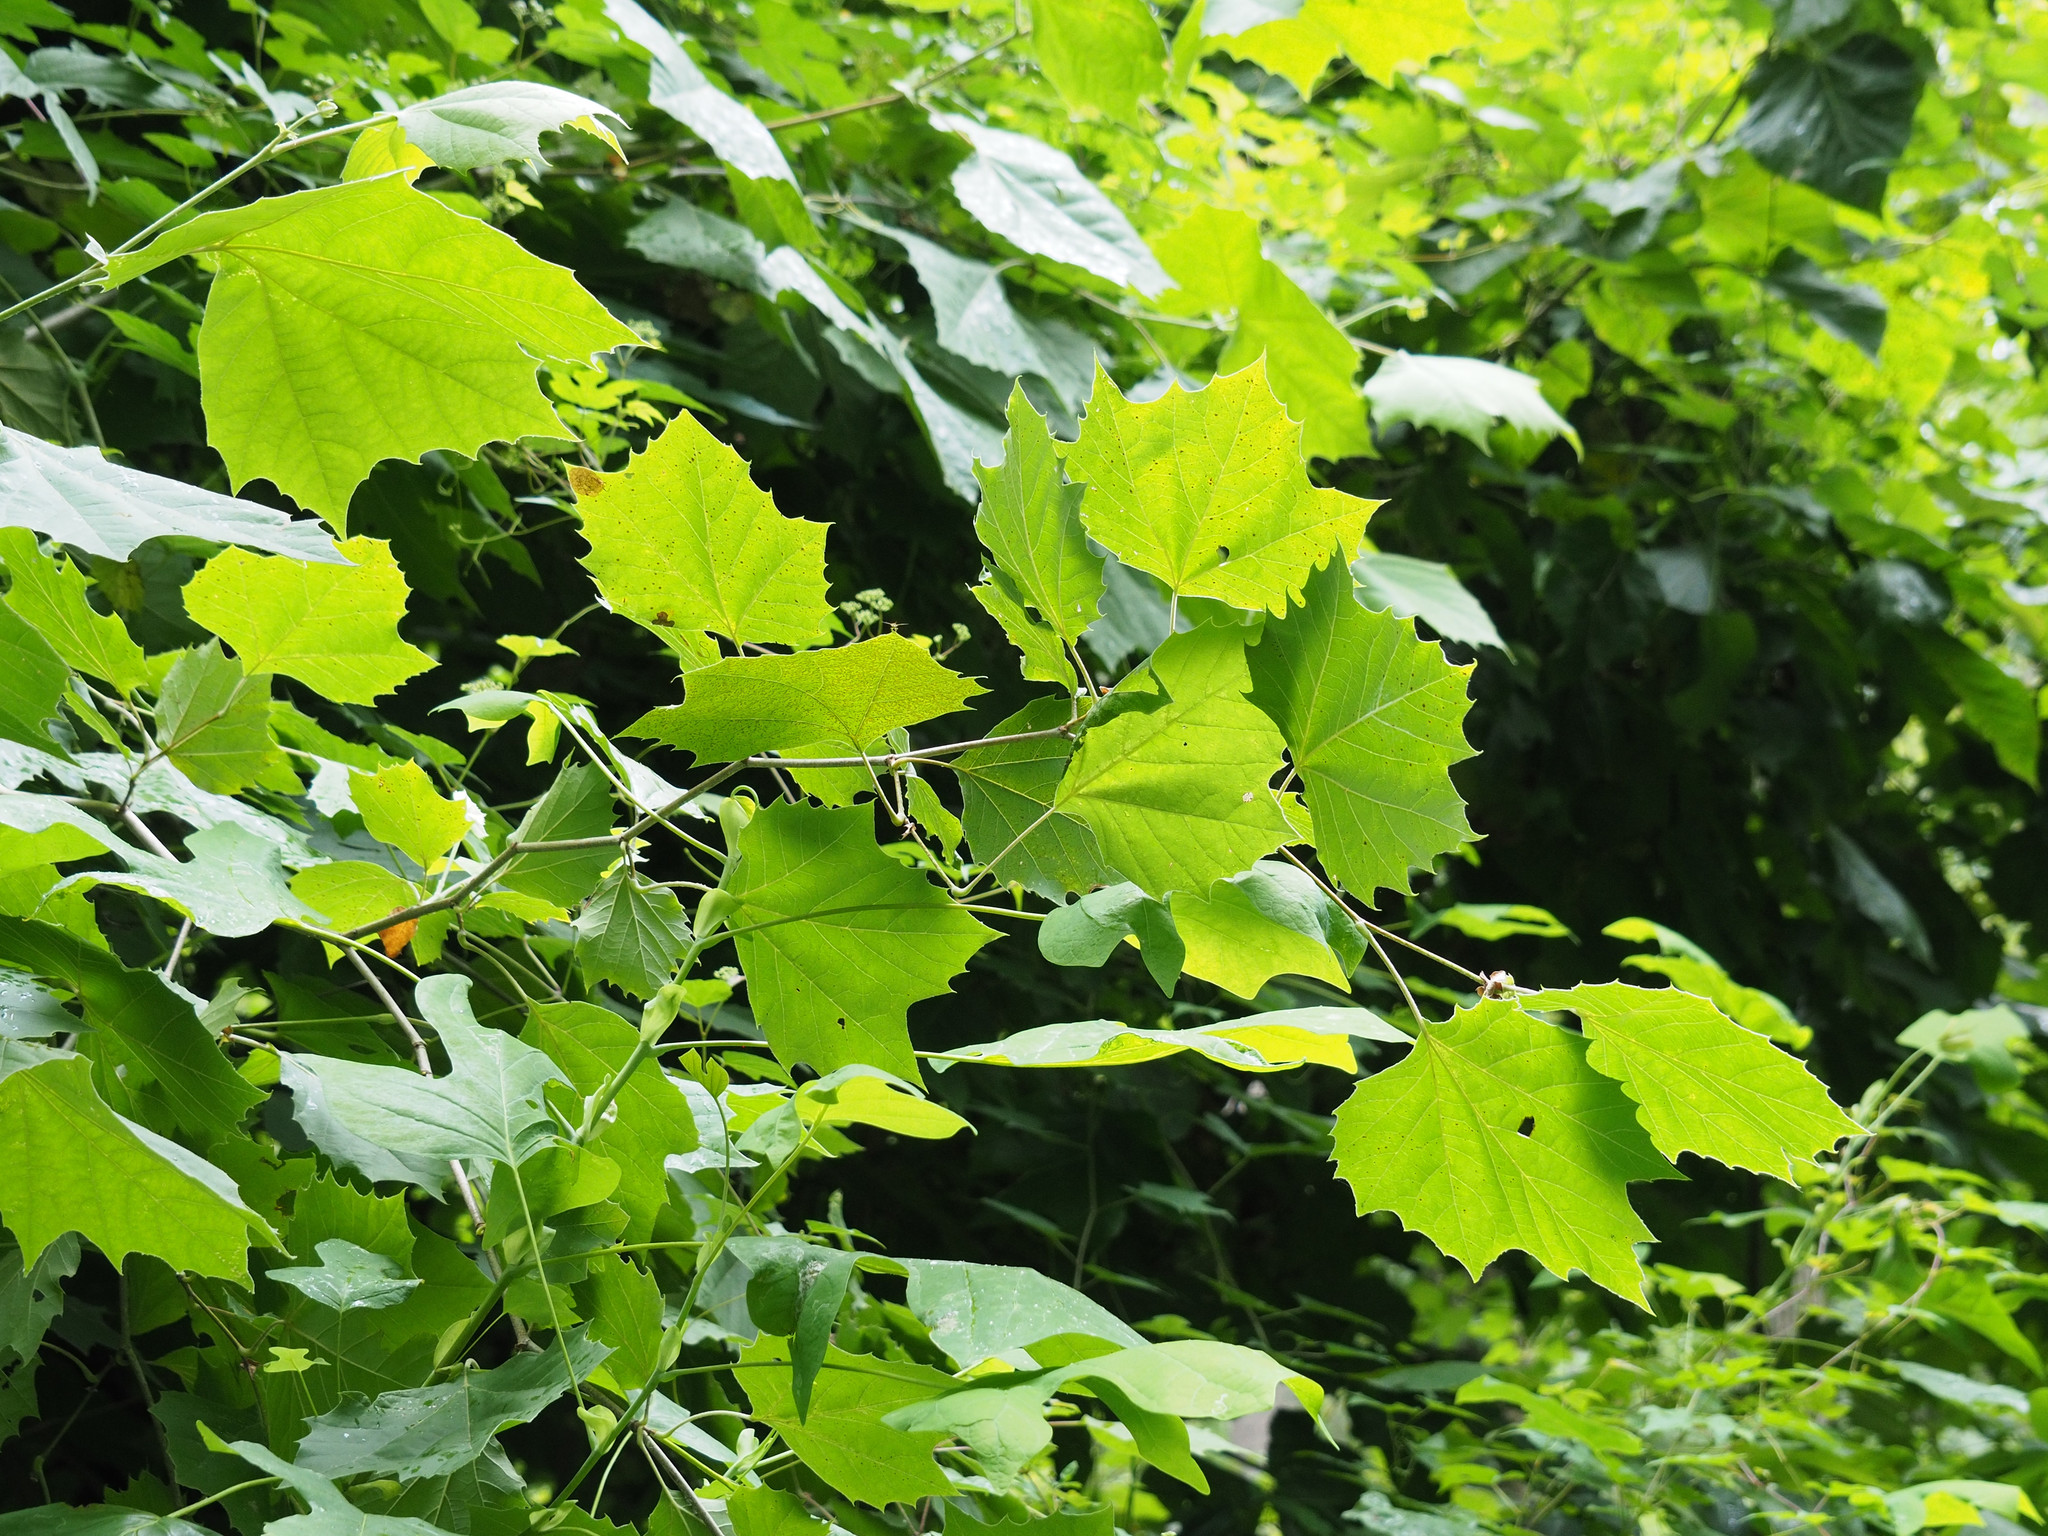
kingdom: Plantae
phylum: Tracheophyta
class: Magnoliopsida
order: Proteales
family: Platanaceae
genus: Platanus
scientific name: Platanus occidentalis
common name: American sycamore
